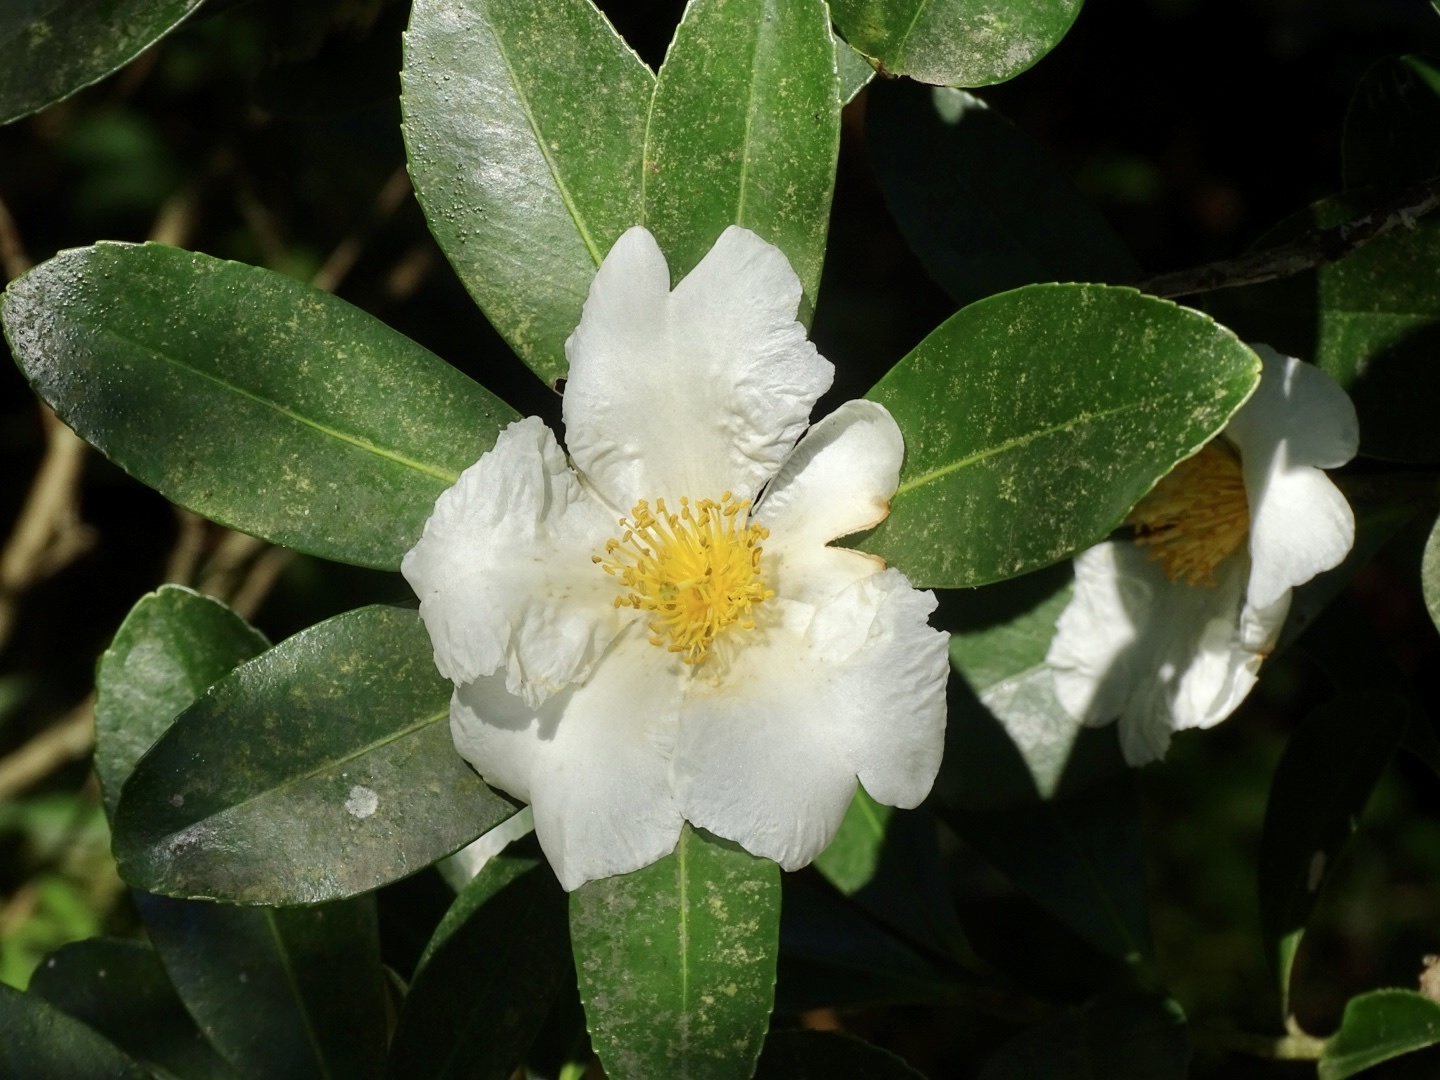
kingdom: Plantae
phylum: Tracheophyta
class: Magnoliopsida
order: Ericales
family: Theaceae
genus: Polyspora
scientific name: Polyspora axillaris
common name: Fried egg tree
